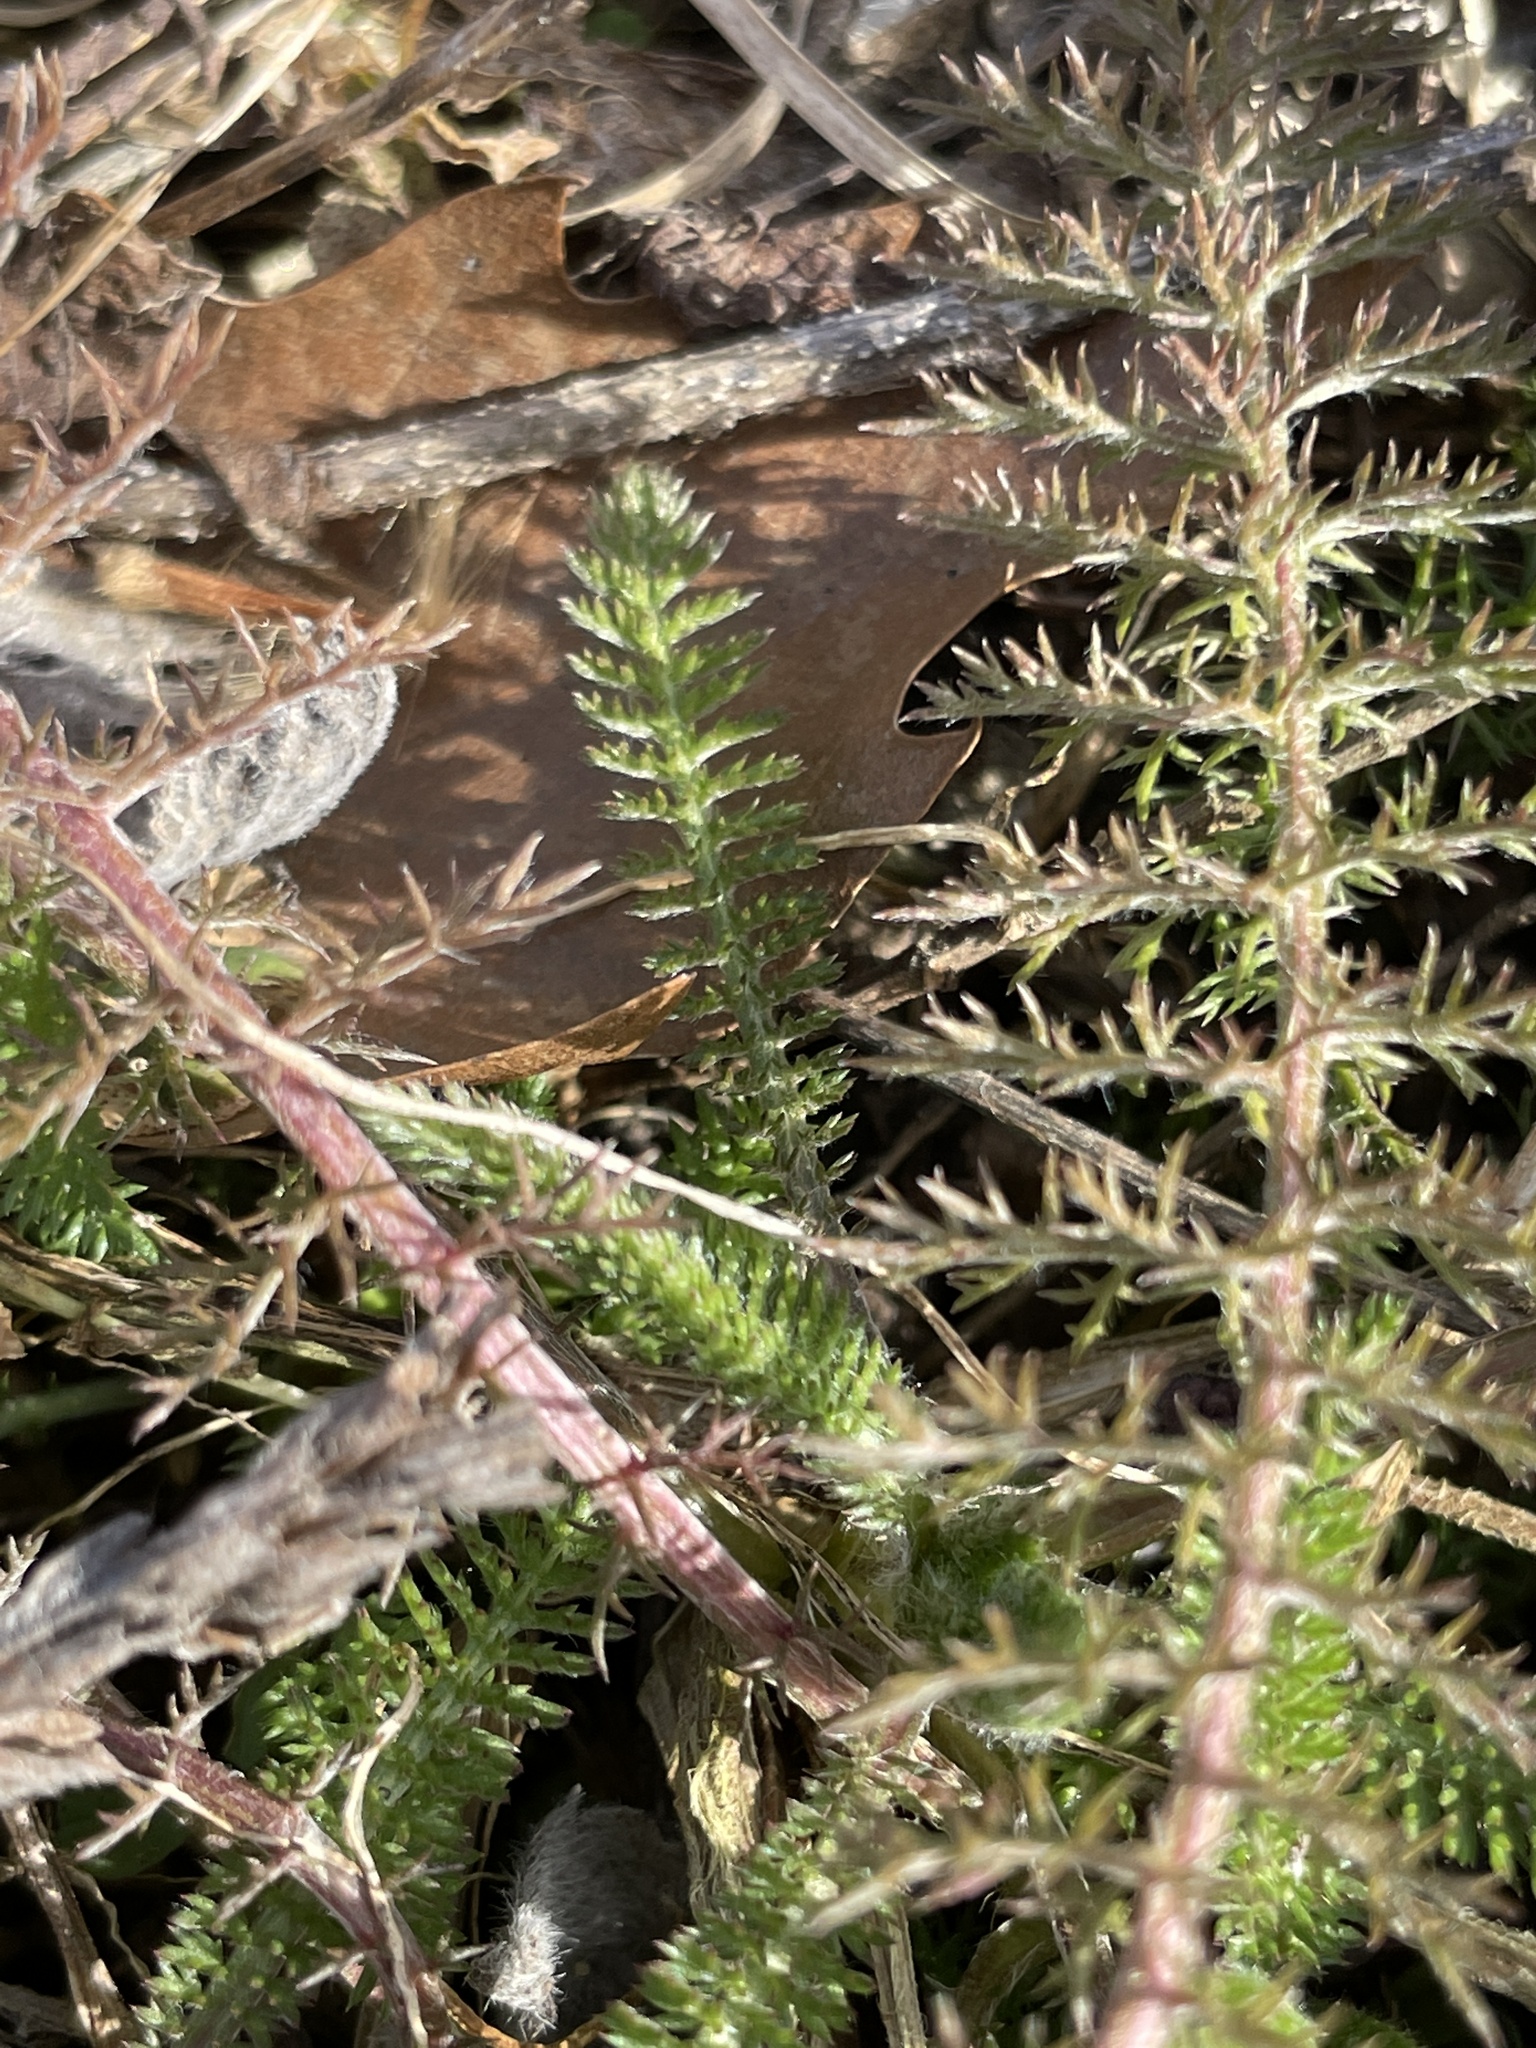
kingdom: Plantae
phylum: Tracheophyta
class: Magnoliopsida
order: Asterales
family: Asteraceae
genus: Achillea
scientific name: Achillea millefolium
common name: Yarrow
